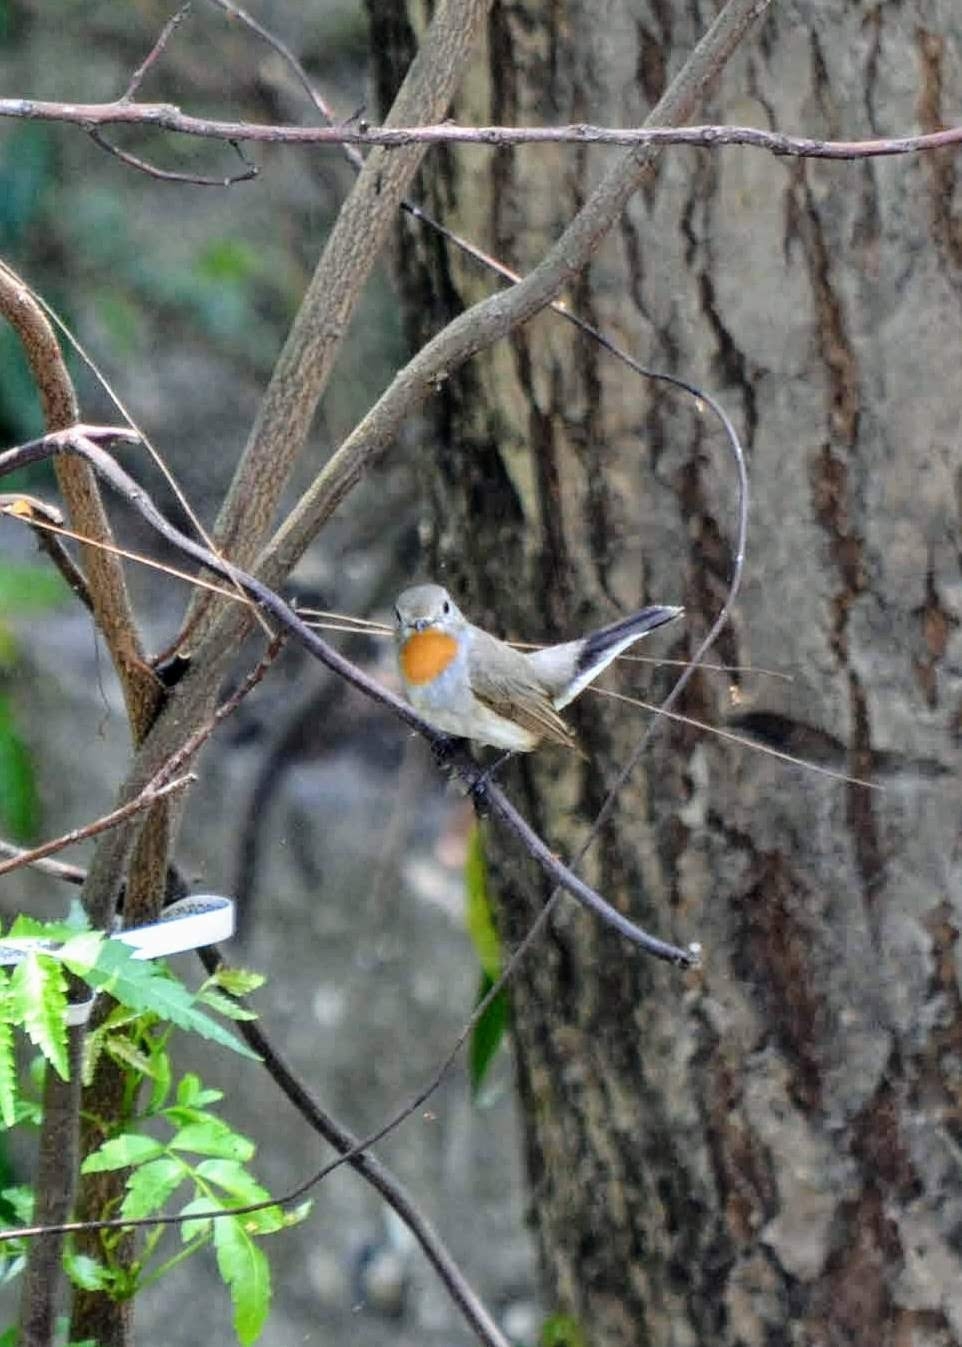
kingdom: Animalia
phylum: Chordata
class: Aves
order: Passeriformes
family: Muscicapidae
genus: Ficedula
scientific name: Ficedula albicilla
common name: Taiga flycatcher
